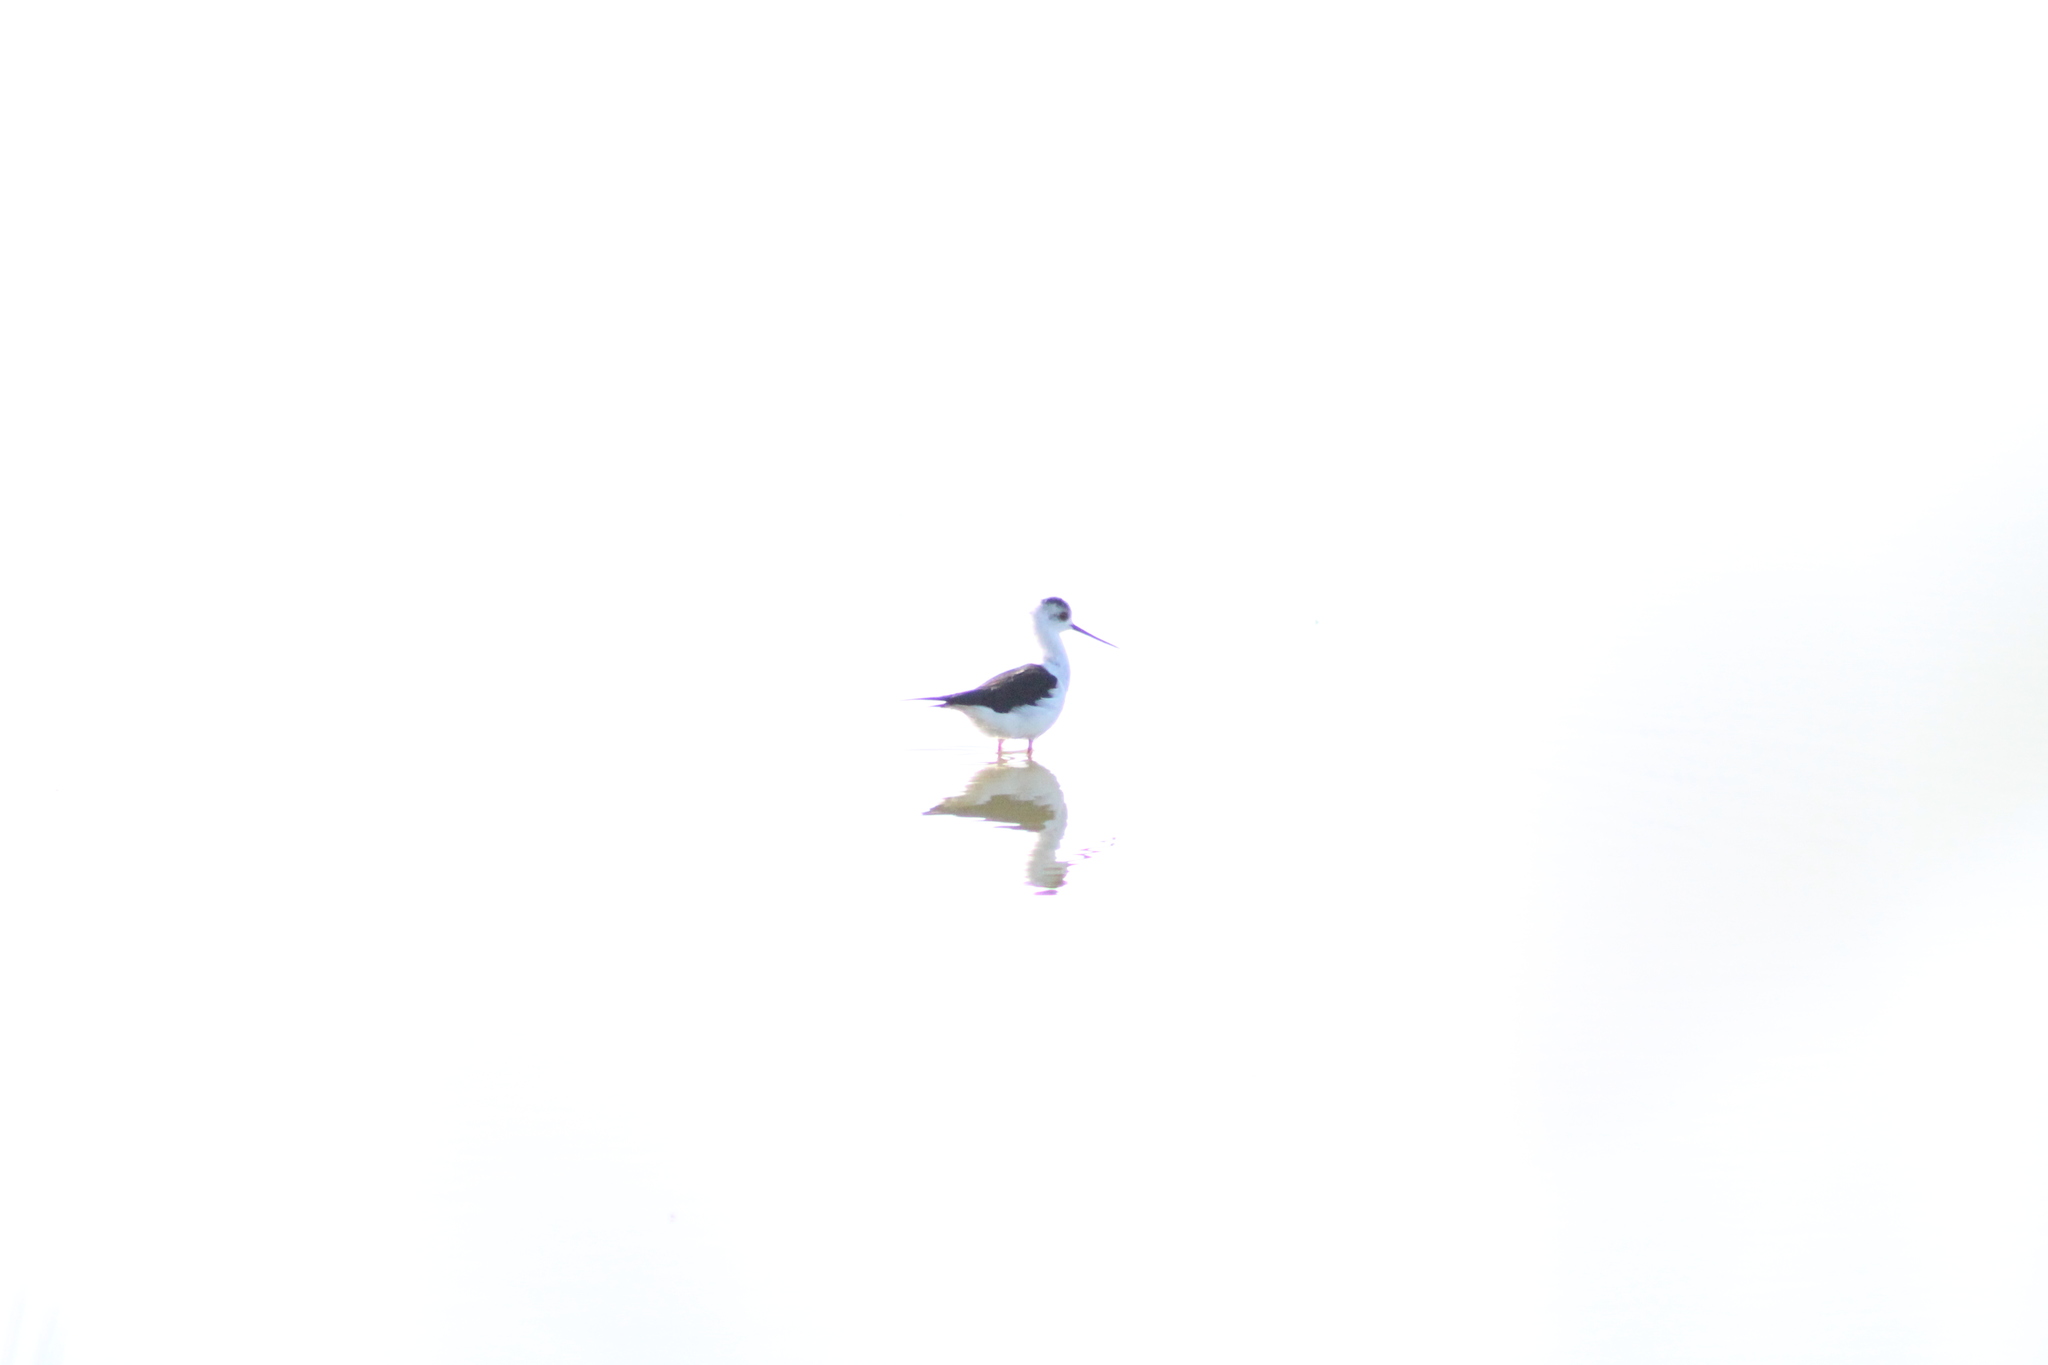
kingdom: Animalia
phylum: Chordata
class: Aves
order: Charadriiformes
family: Recurvirostridae
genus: Himantopus
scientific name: Himantopus himantopus
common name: Black-winged stilt
